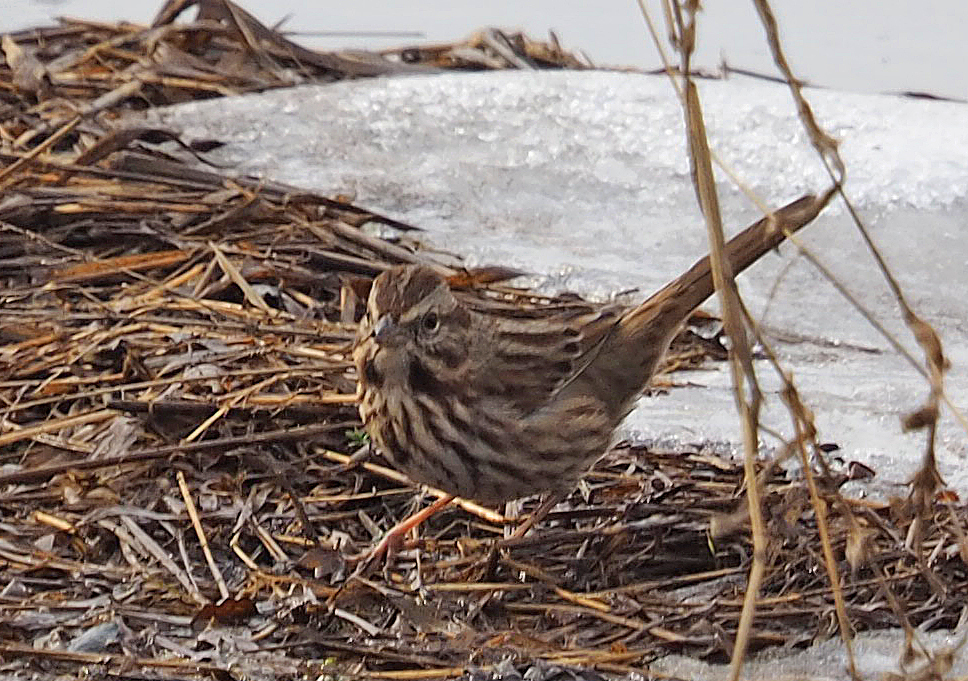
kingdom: Animalia
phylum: Chordata
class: Aves
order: Passeriformes
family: Passerellidae
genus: Melospiza
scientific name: Melospiza melodia
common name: Song sparrow
